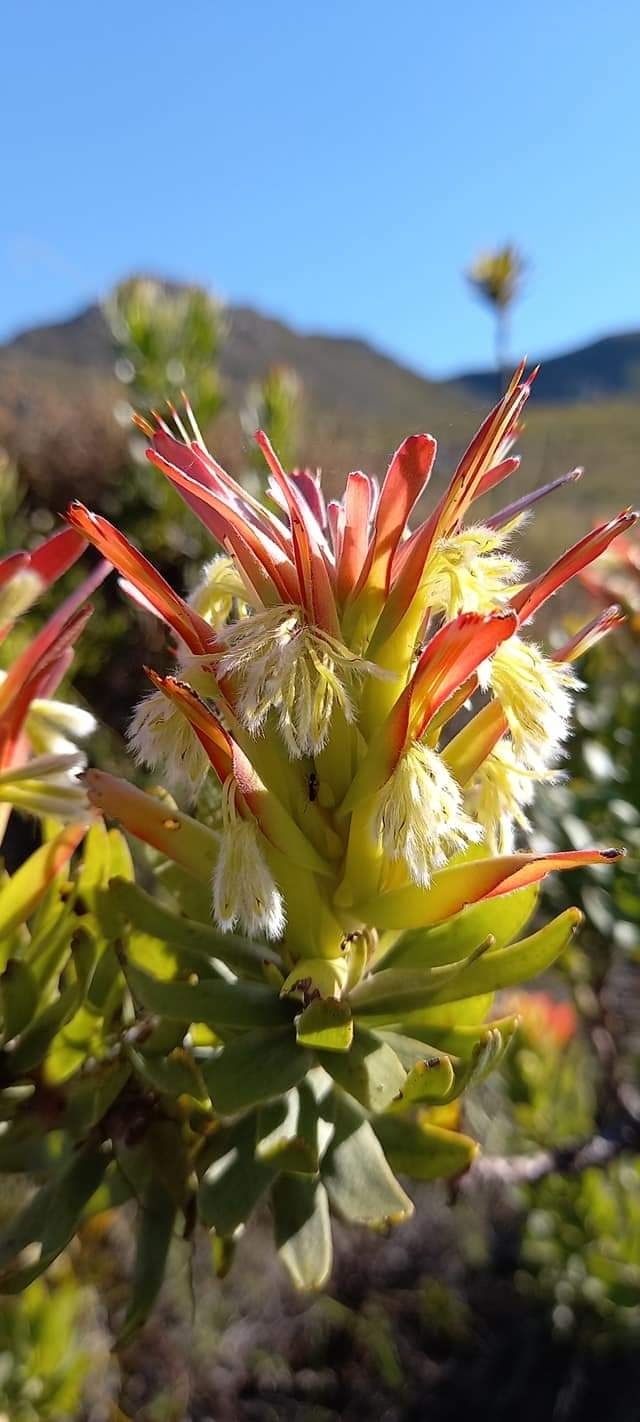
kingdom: Plantae
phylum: Tracheophyta
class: Magnoliopsida
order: Proteales
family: Proteaceae
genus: Mimetes
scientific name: Mimetes cucullatus
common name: Common pagoda
